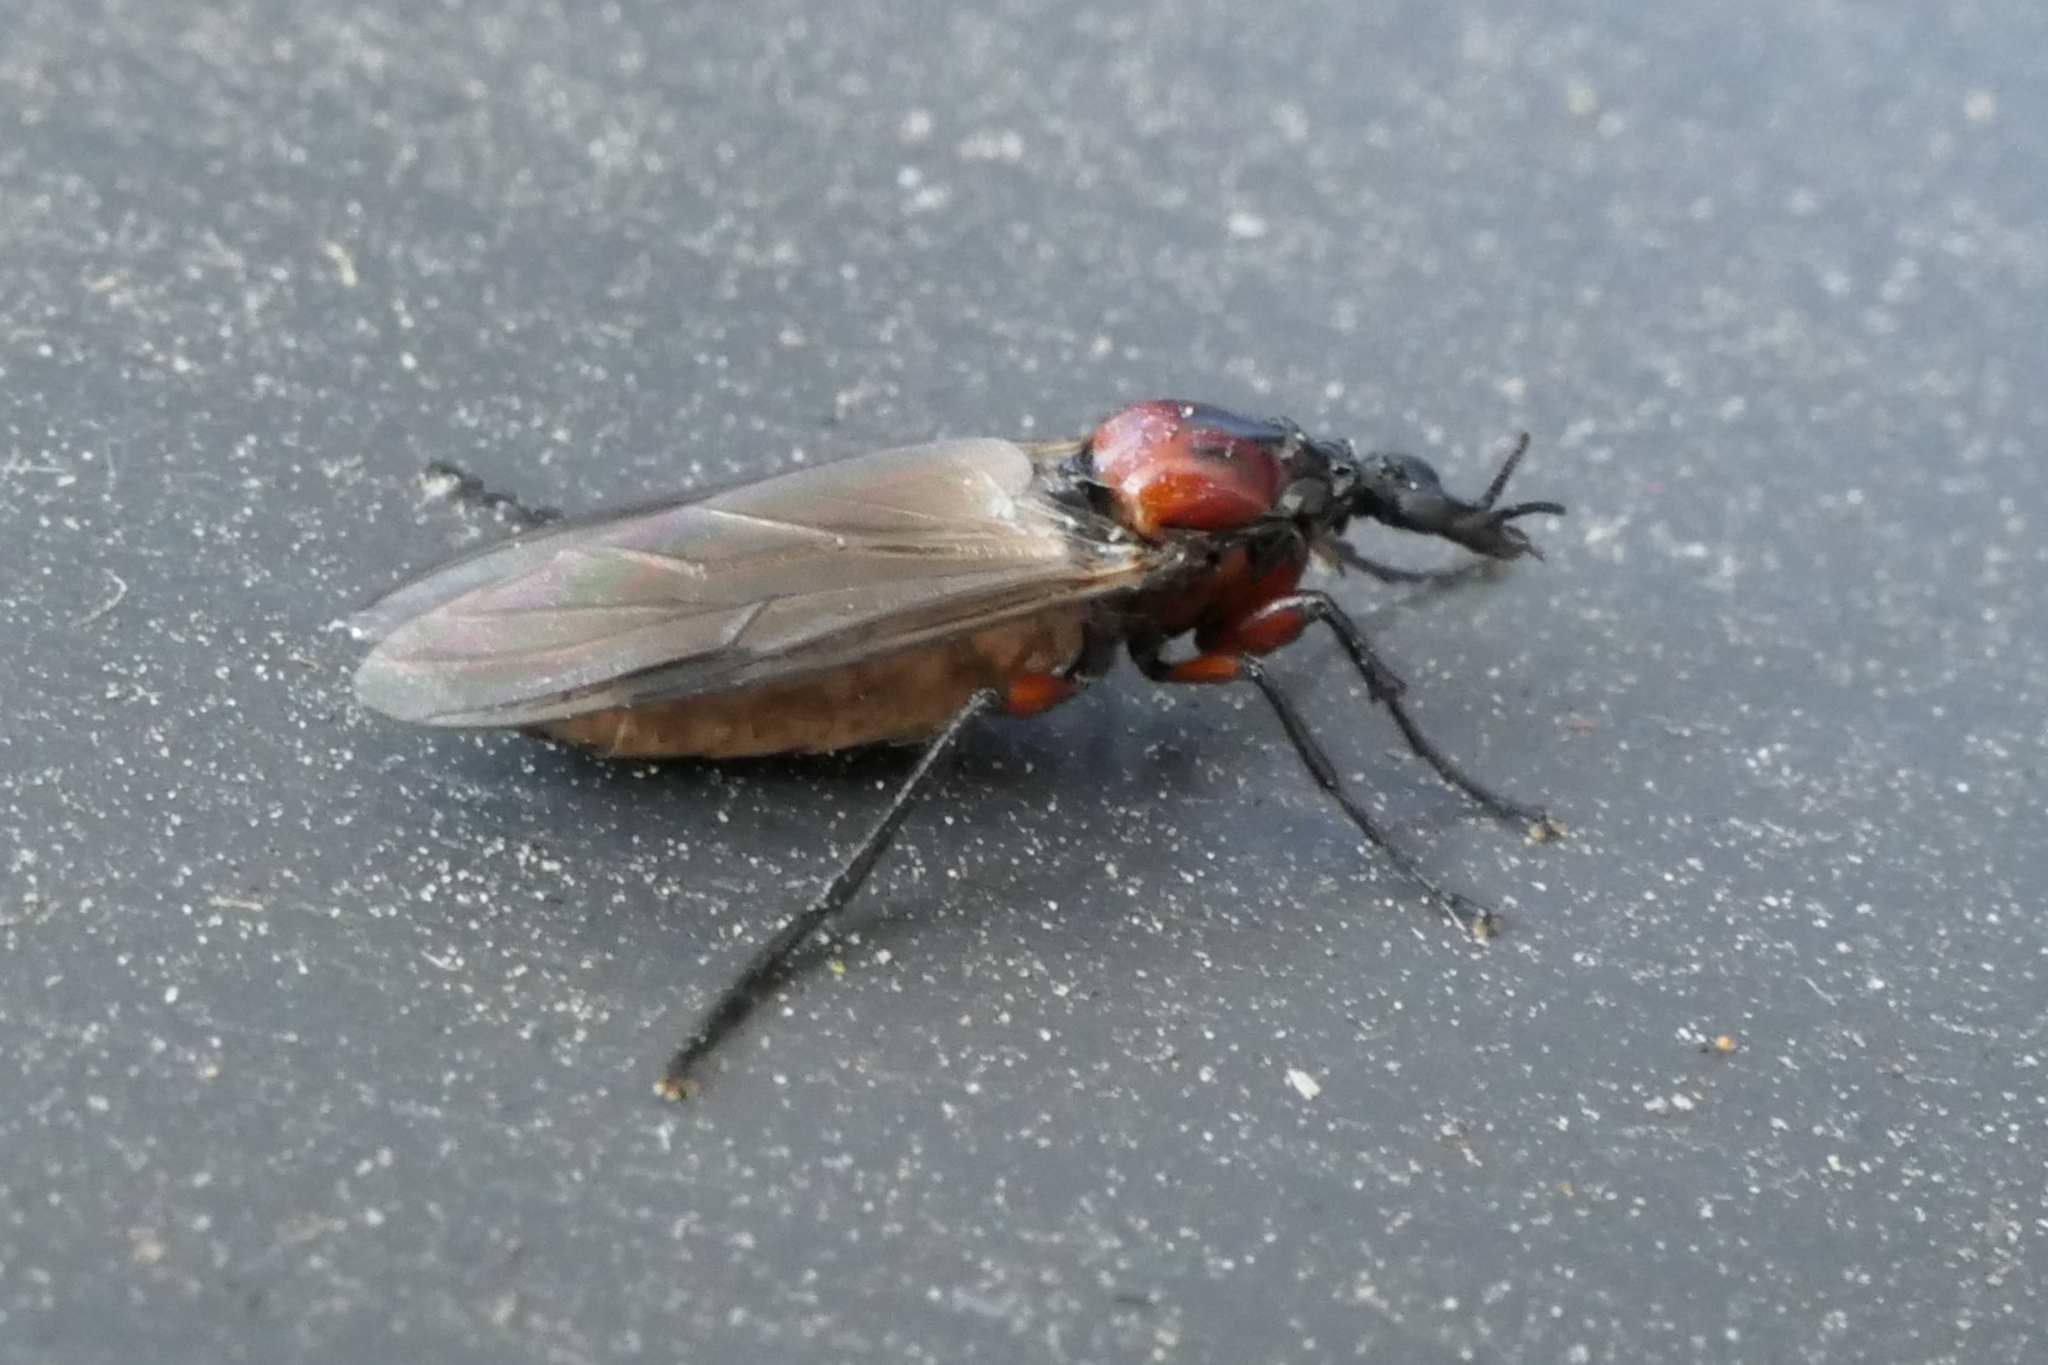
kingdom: Animalia
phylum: Arthropoda
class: Insecta
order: Diptera
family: Bibionidae
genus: Dilophus
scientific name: Dilophus nigrostigma
